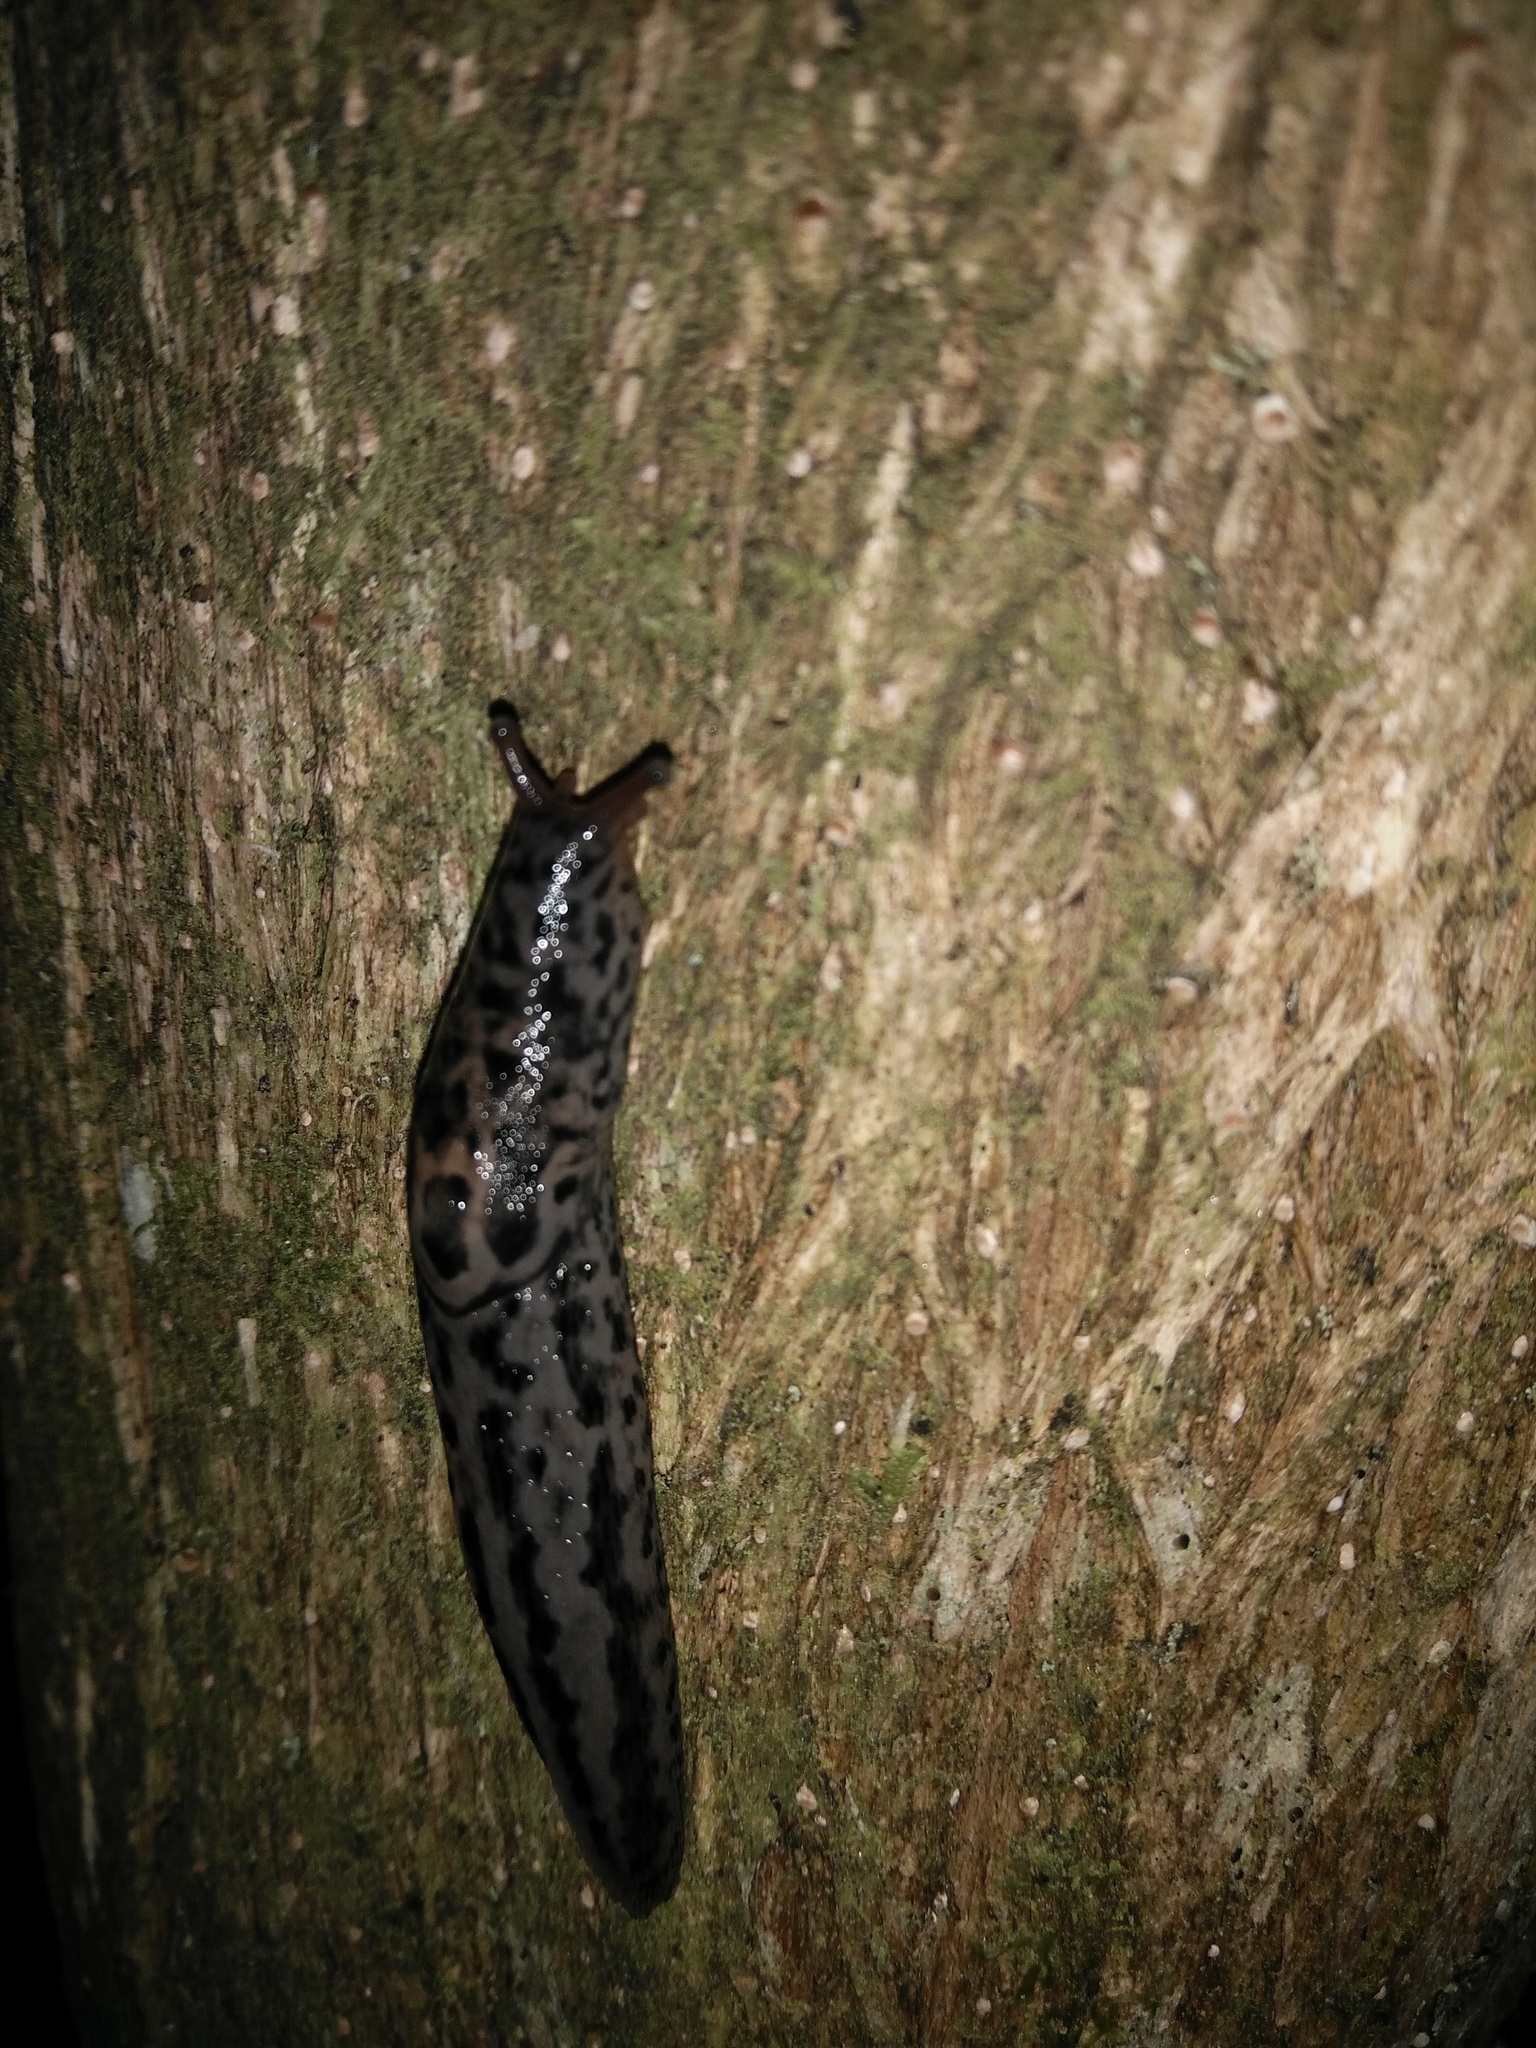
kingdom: Animalia
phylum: Mollusca
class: Gastropoda
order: Stylommatophora
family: Limacidae
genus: Limax
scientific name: Limax maximus
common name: Great grey slug
